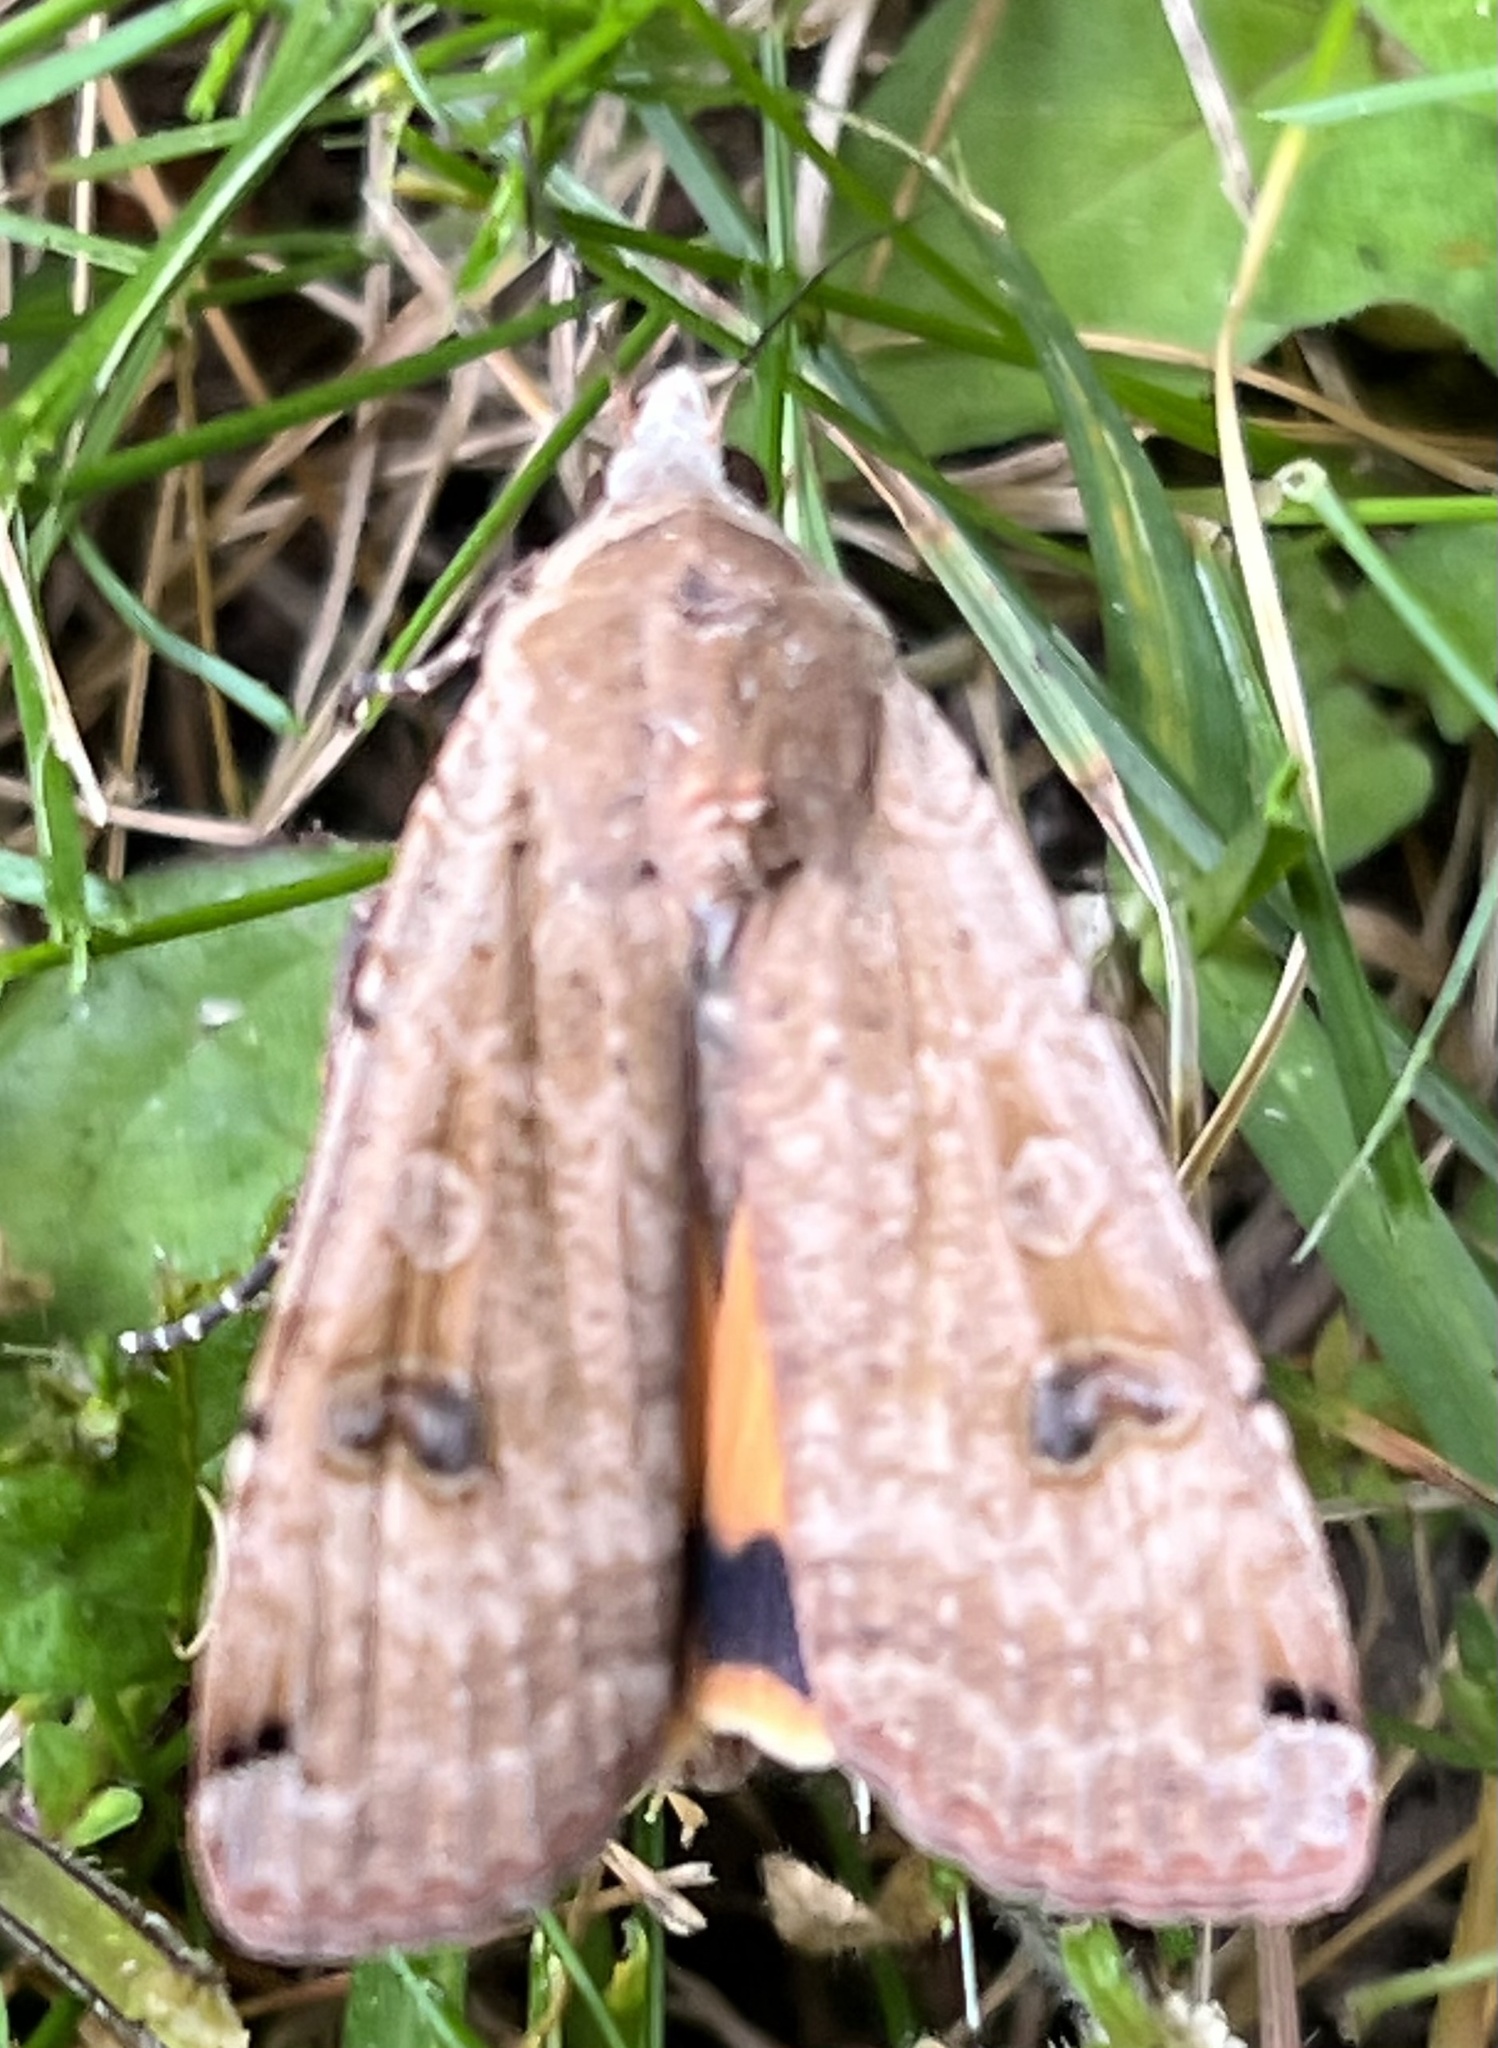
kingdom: Animalia
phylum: Arthropoda
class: Insecta
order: Lepidoptera
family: Noctuidae
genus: Noctua
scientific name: Noctua pronuba
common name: Large yellow underwing
